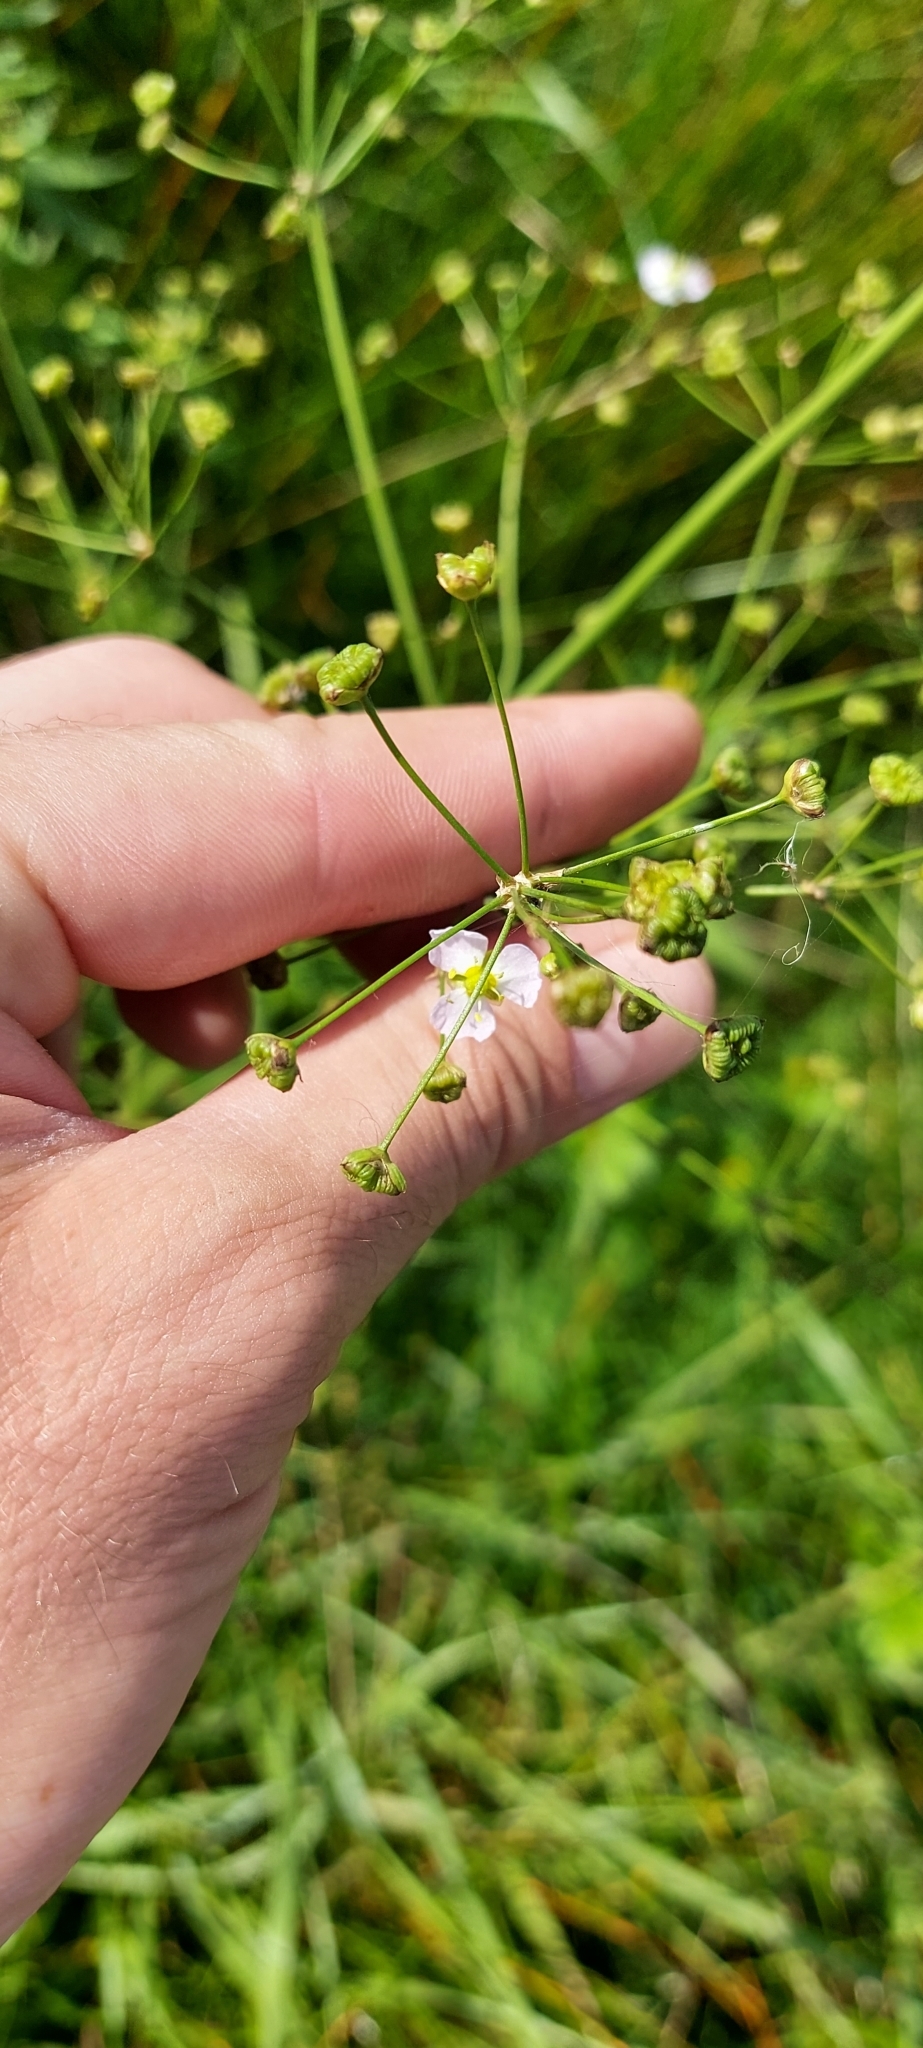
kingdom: Plantae
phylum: Tracheophyta
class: Liliopsida
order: Alismatales
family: Alismataceae
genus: Alisma
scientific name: Alisma plantago-aquatica
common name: Water-plantain
